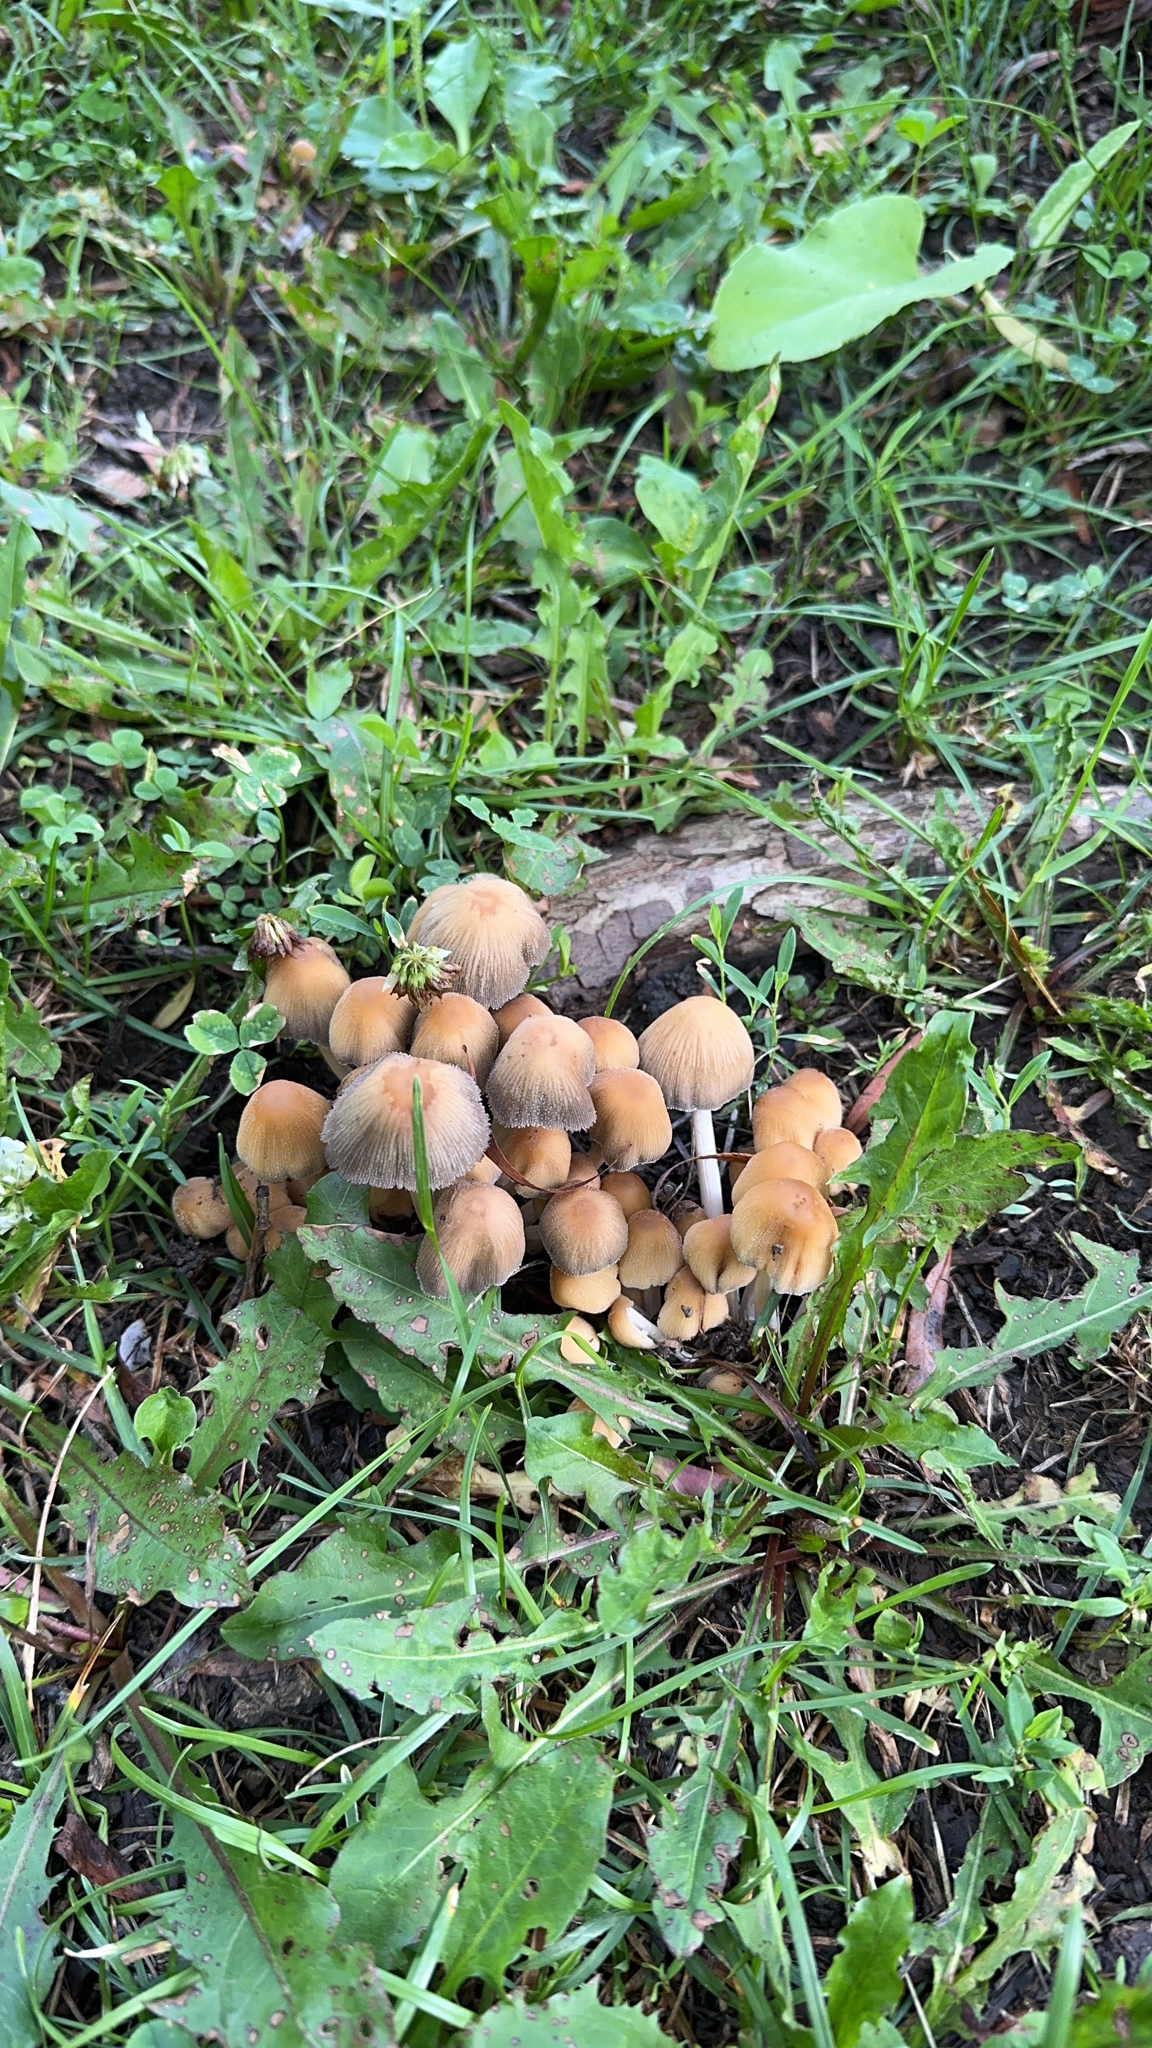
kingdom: Fungi
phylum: Basidiomycota
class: Agaricomycetes
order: Agaricales
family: Psathyrellaceae
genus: Coprinellus
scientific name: Coprinellus micaceus
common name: Glistening ink-cap
